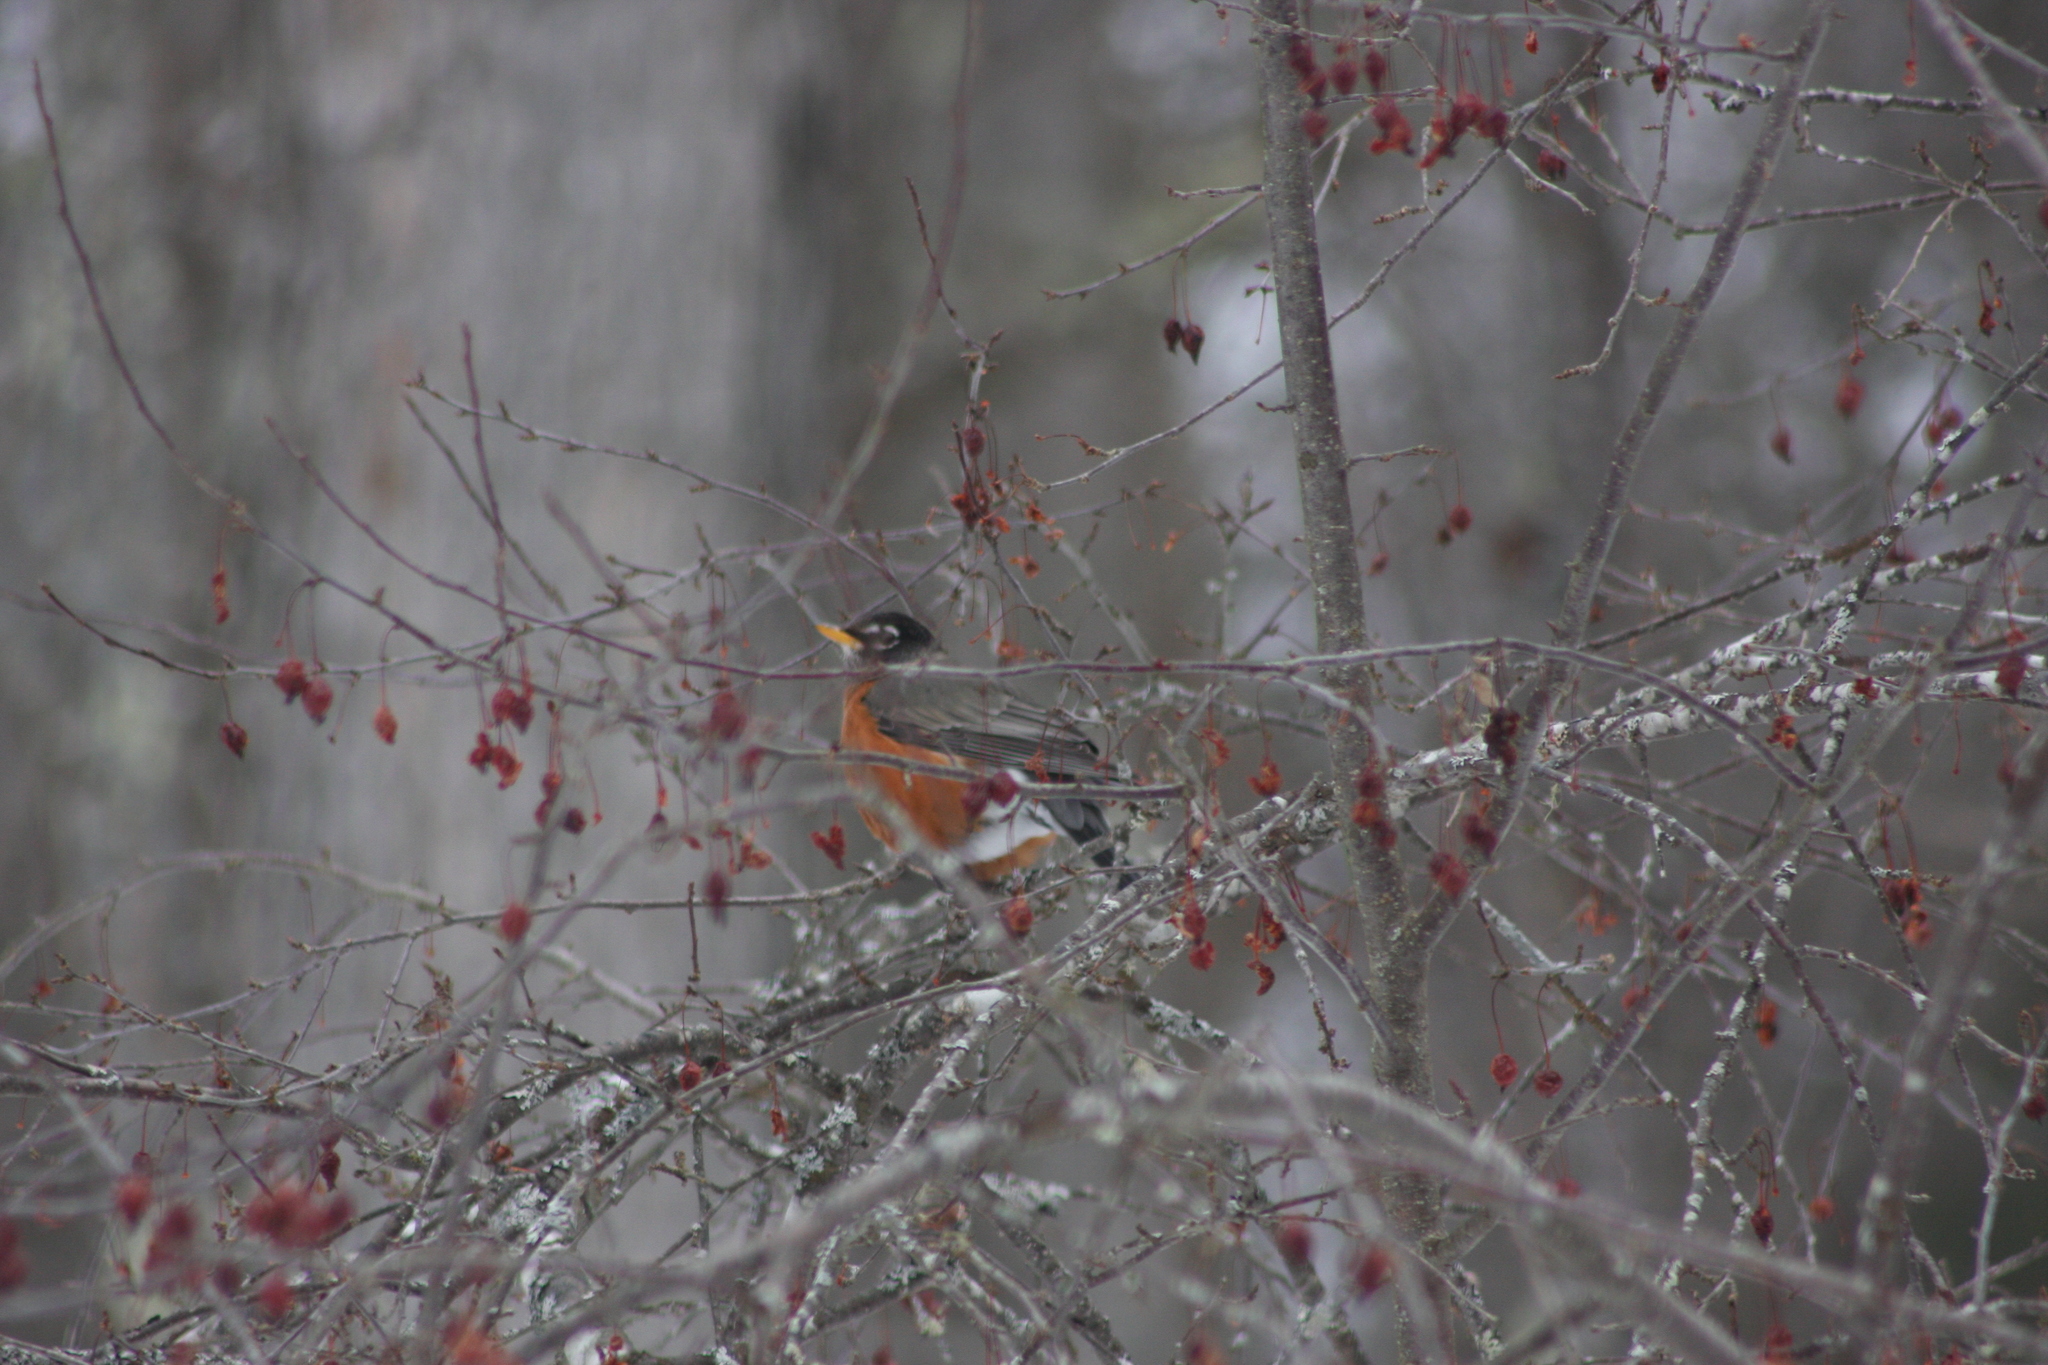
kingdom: Animalia
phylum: Chordata
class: Aves
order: Passeriformes
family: Turdidae
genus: Turdus
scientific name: Turdus migratorius
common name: American robin
